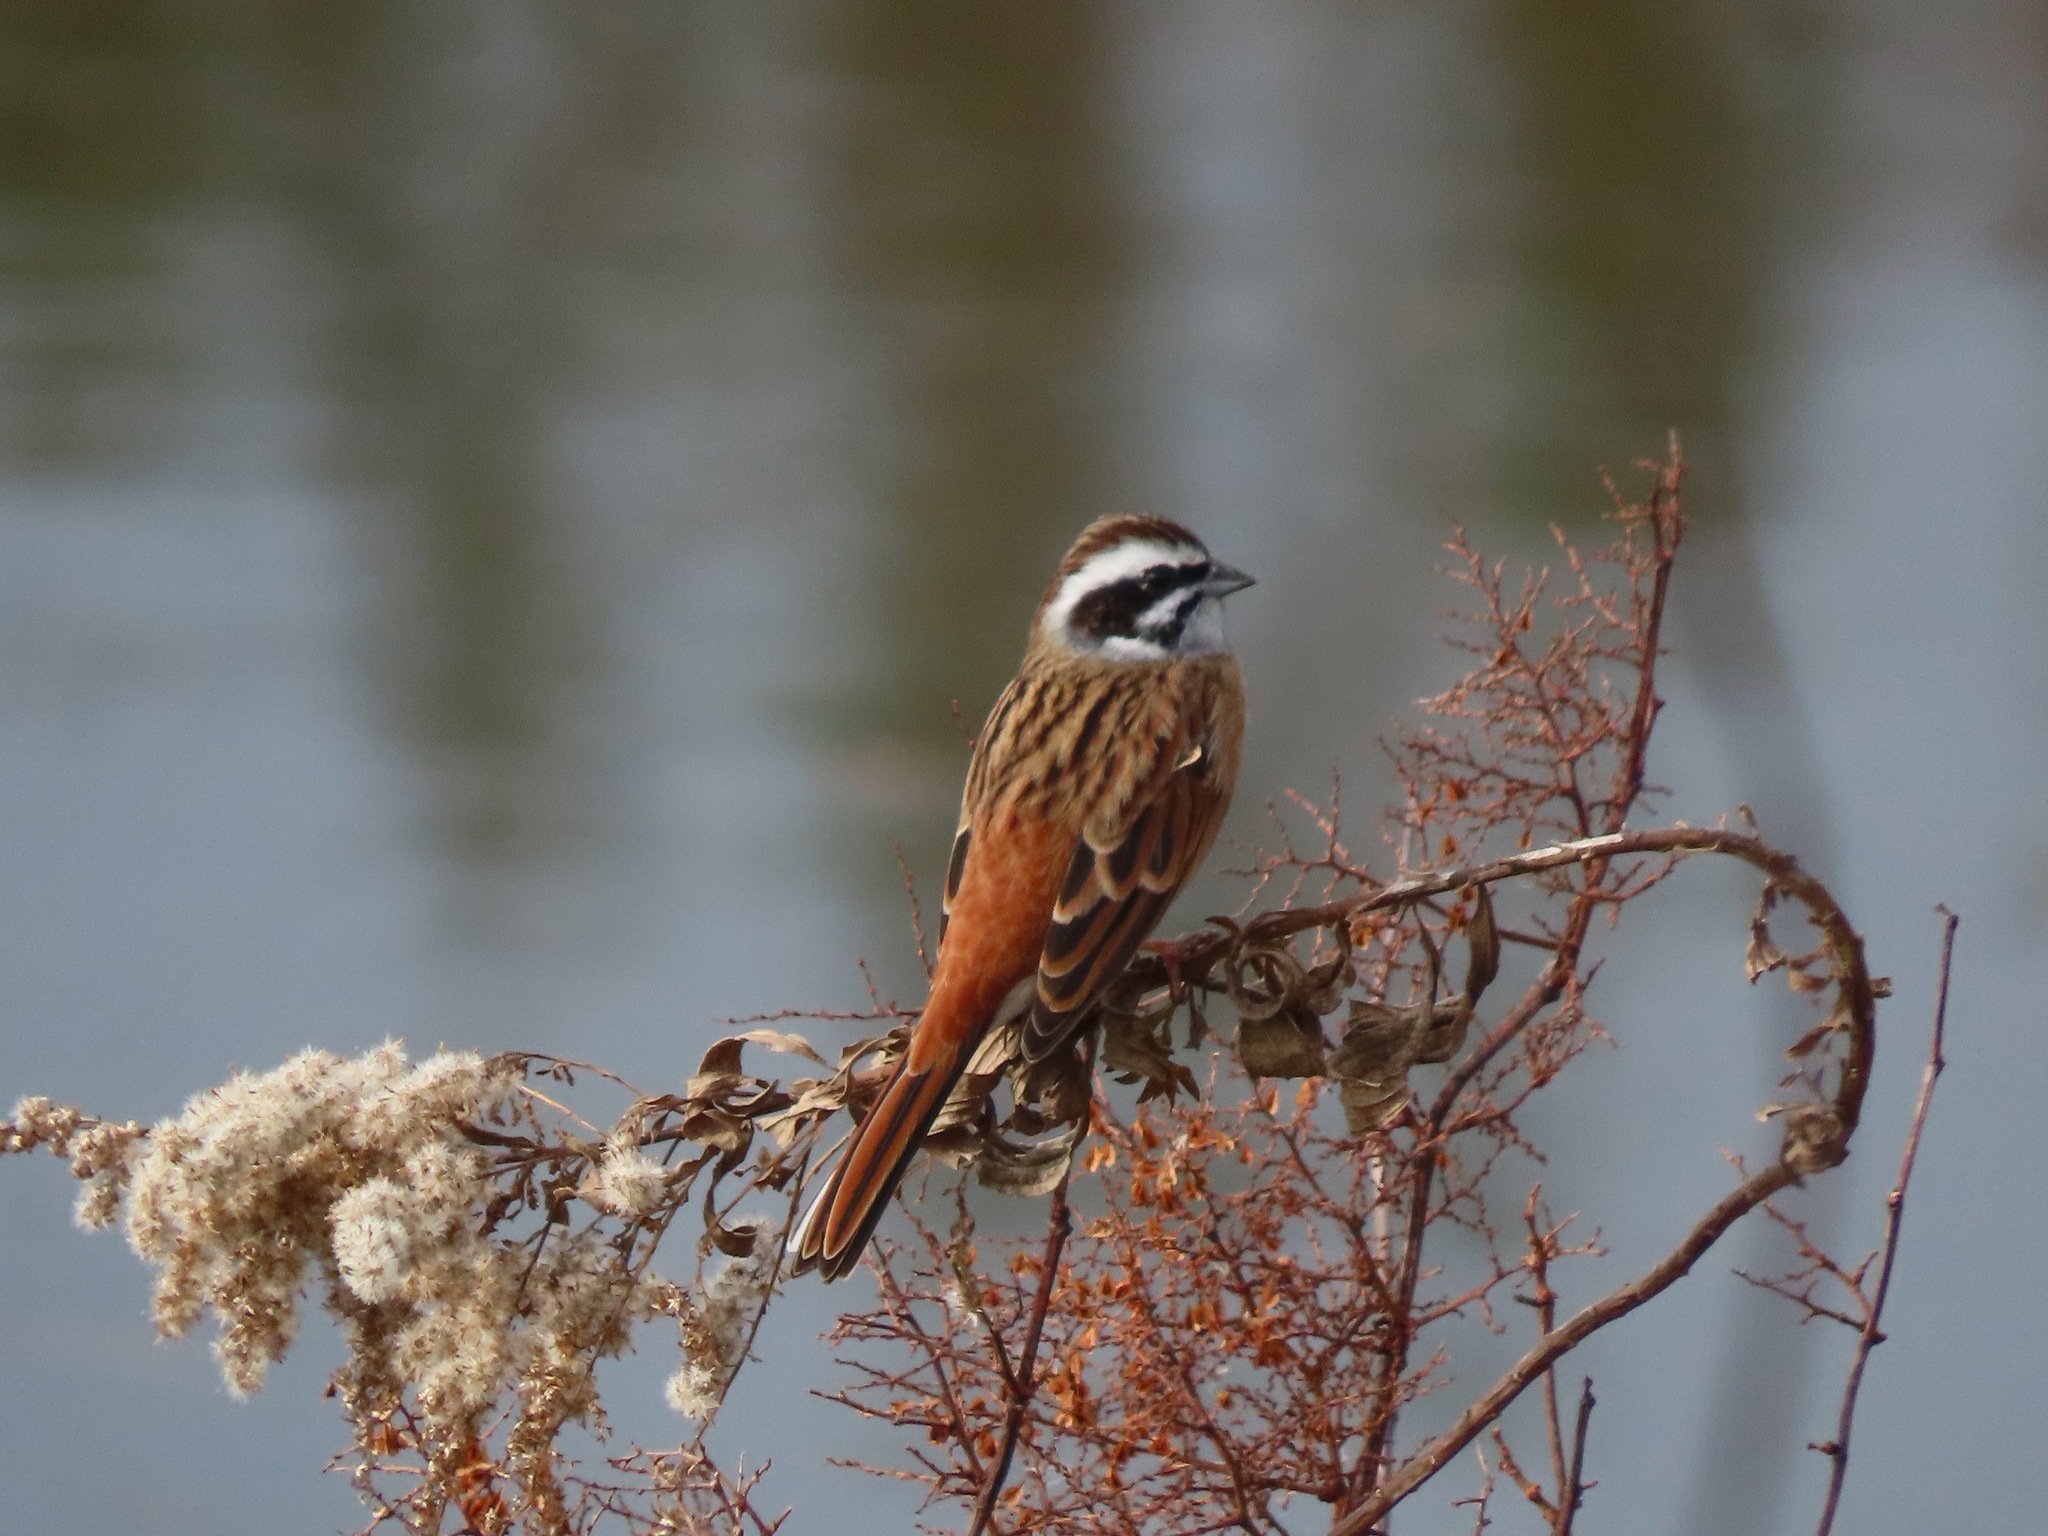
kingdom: Animalia
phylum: Chordata
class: Aves
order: Passeriformes
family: Emberizidae
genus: Emberiza
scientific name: Emberiza cioides
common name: Meadow bunting
